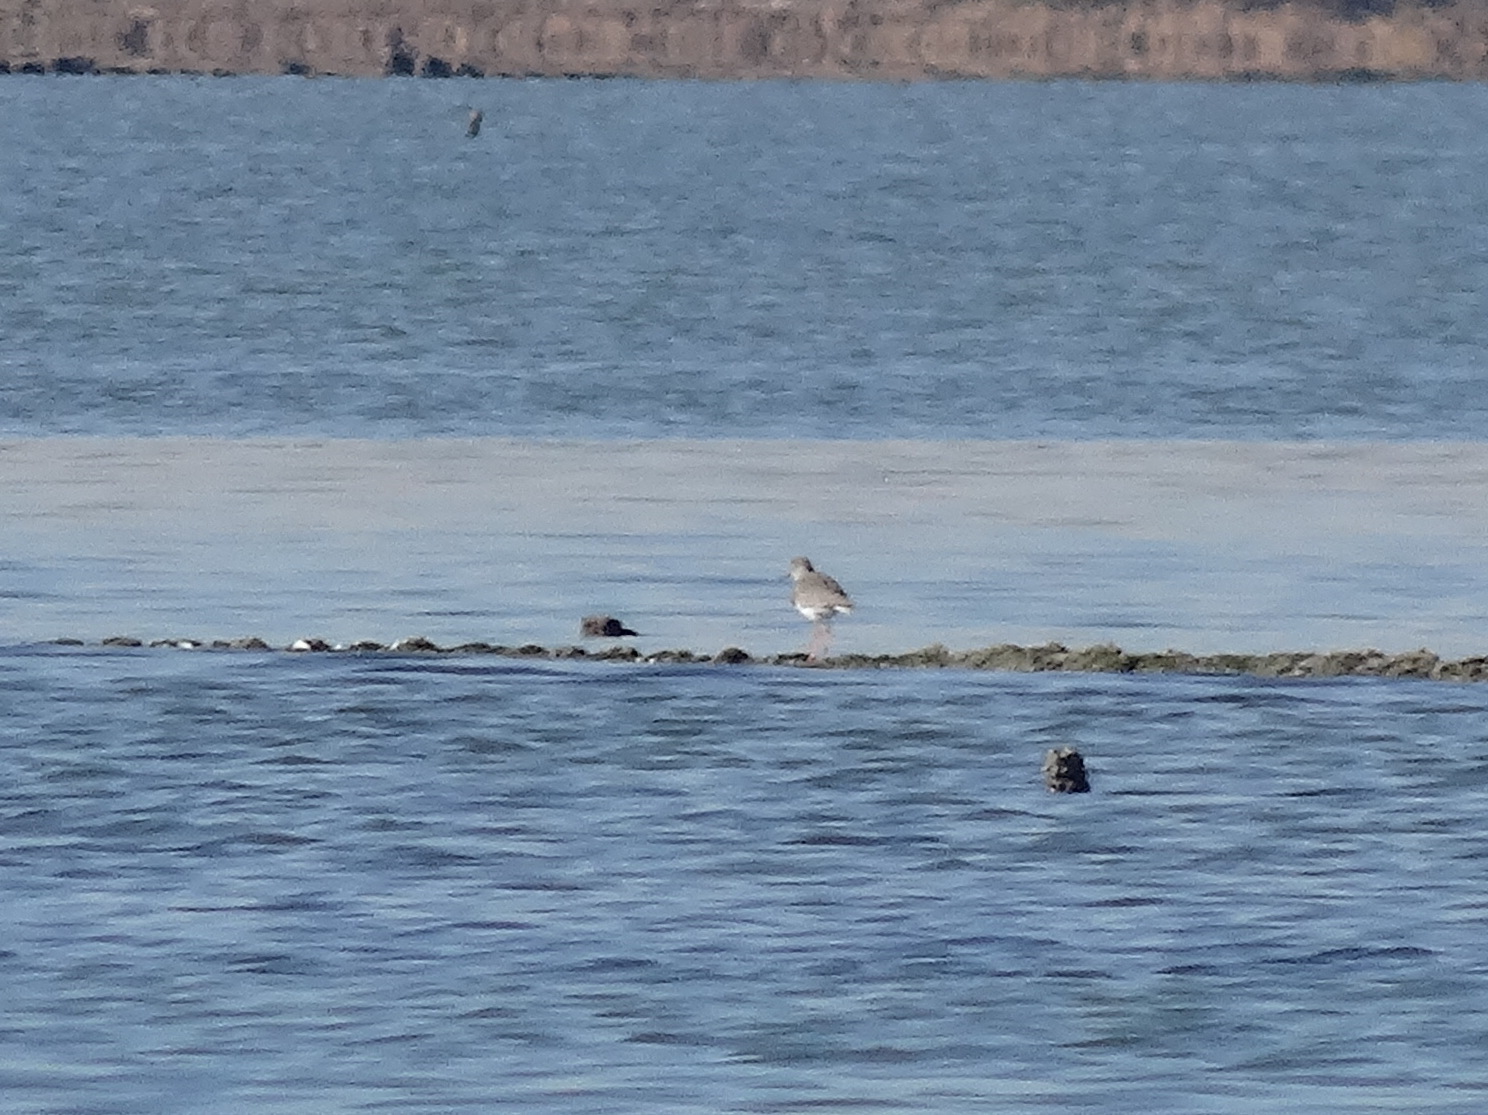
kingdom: Animalia
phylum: Chordata
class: Aves
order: Charadriiformes
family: Scolopacidae
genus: Tringa
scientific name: Tringa totanus
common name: Common redshank
